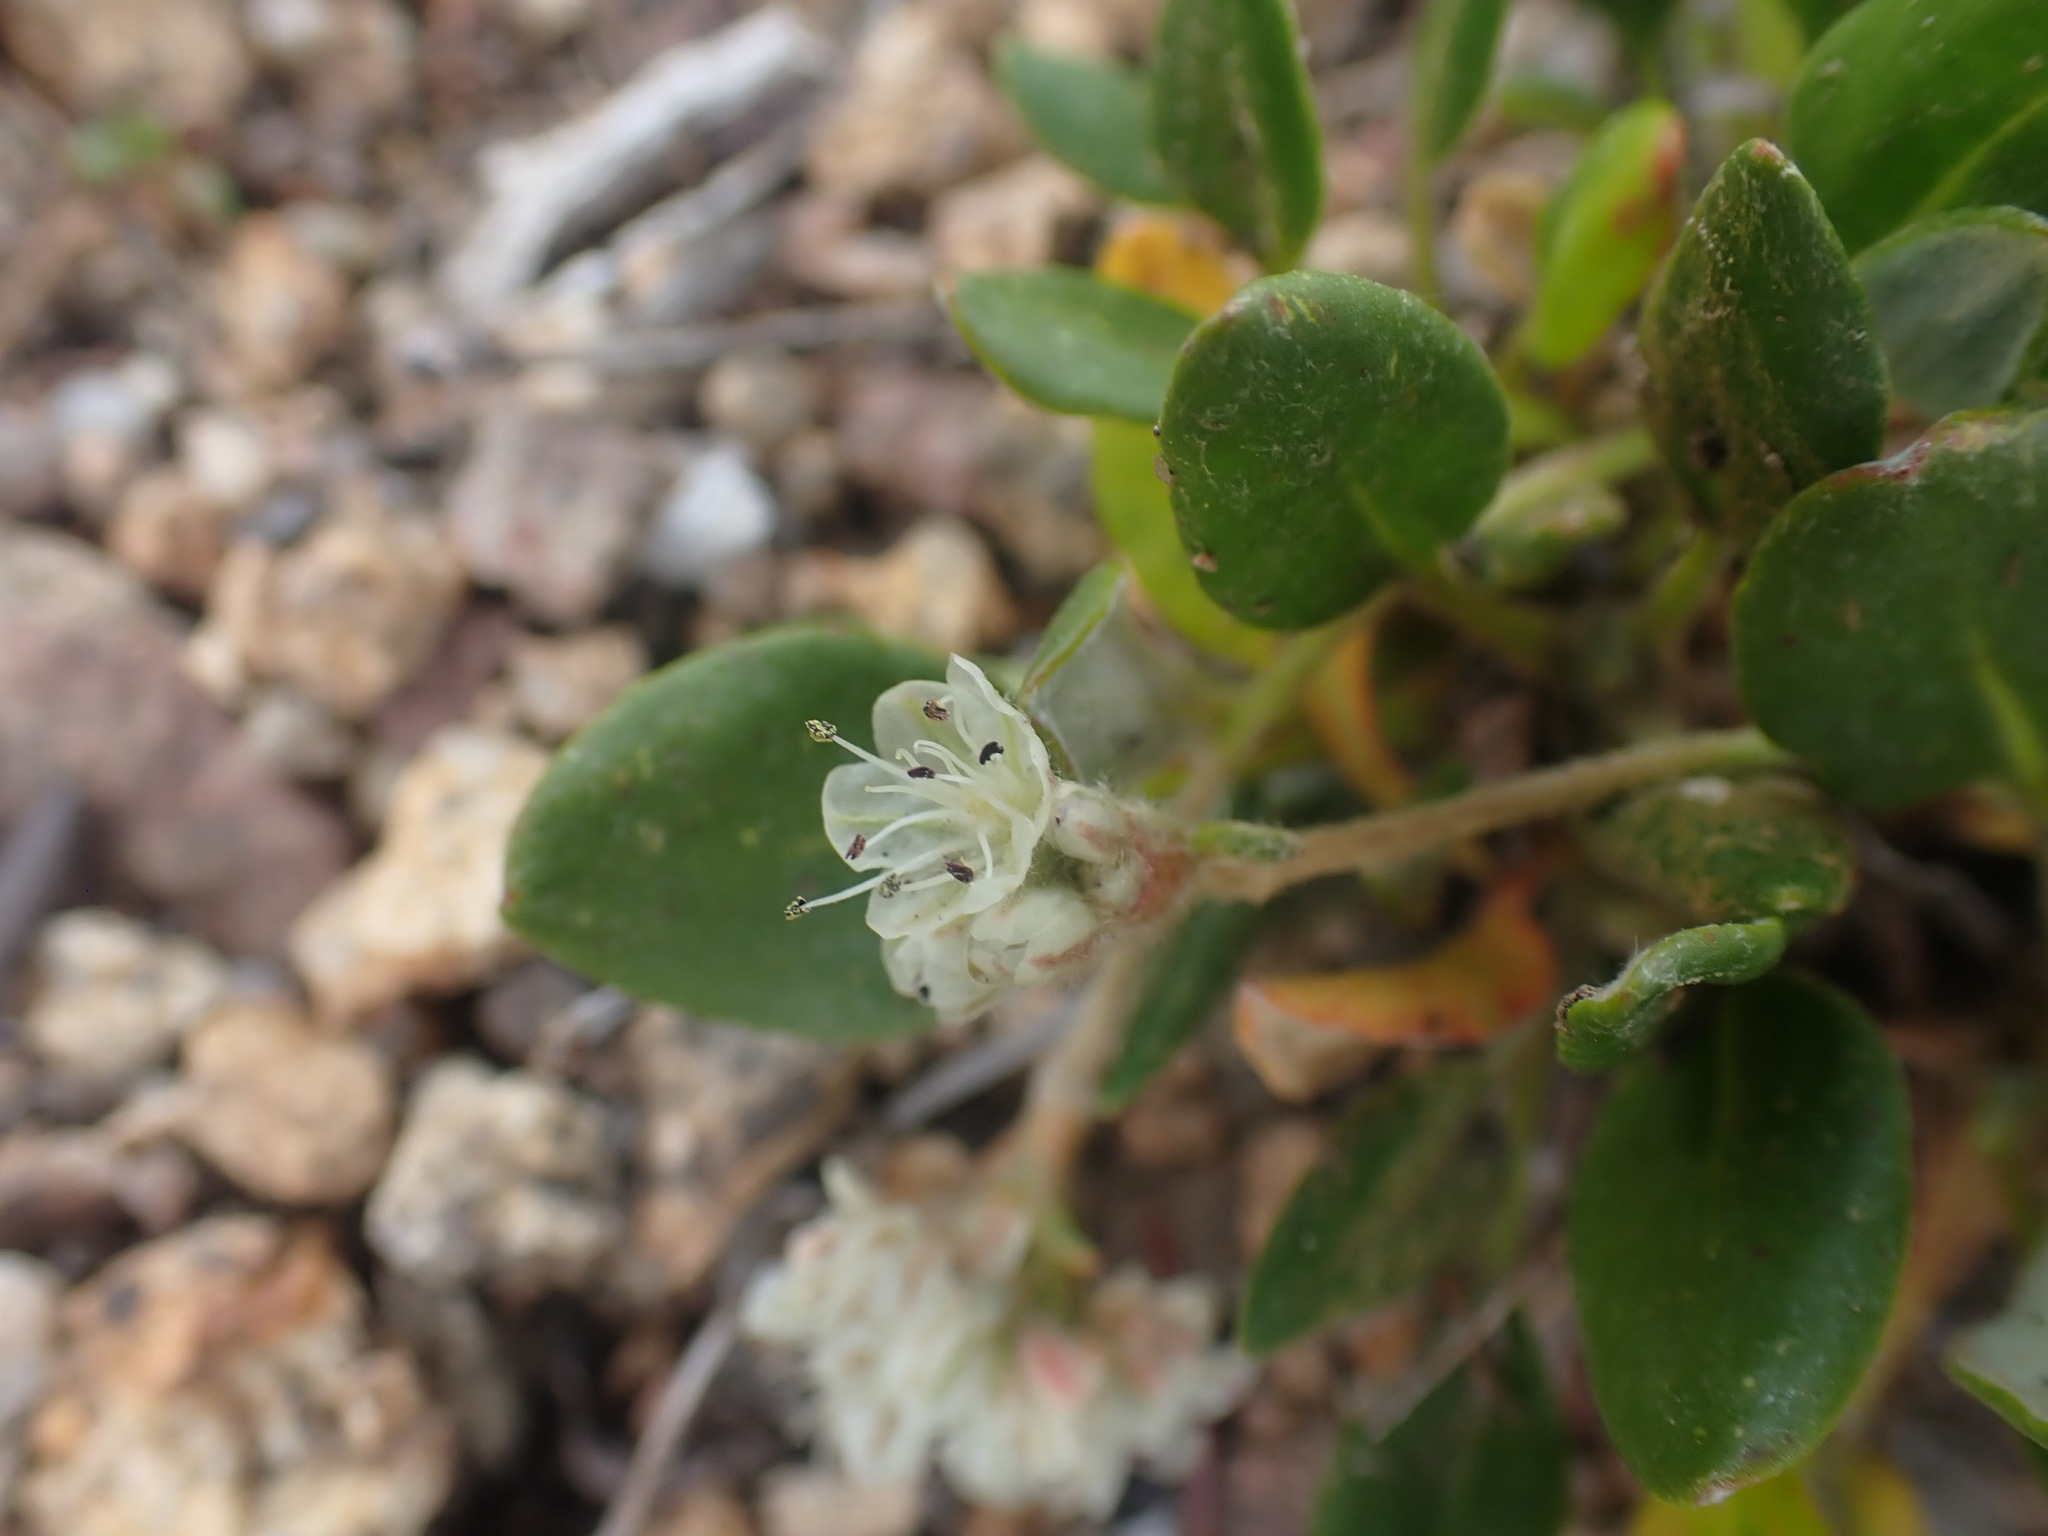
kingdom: Plantae
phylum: Tracheophyta
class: Magnoliopsida
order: Caryophyllales
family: Polygonaceae
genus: Eriogonum
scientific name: Eriogonum pyrolifolium
